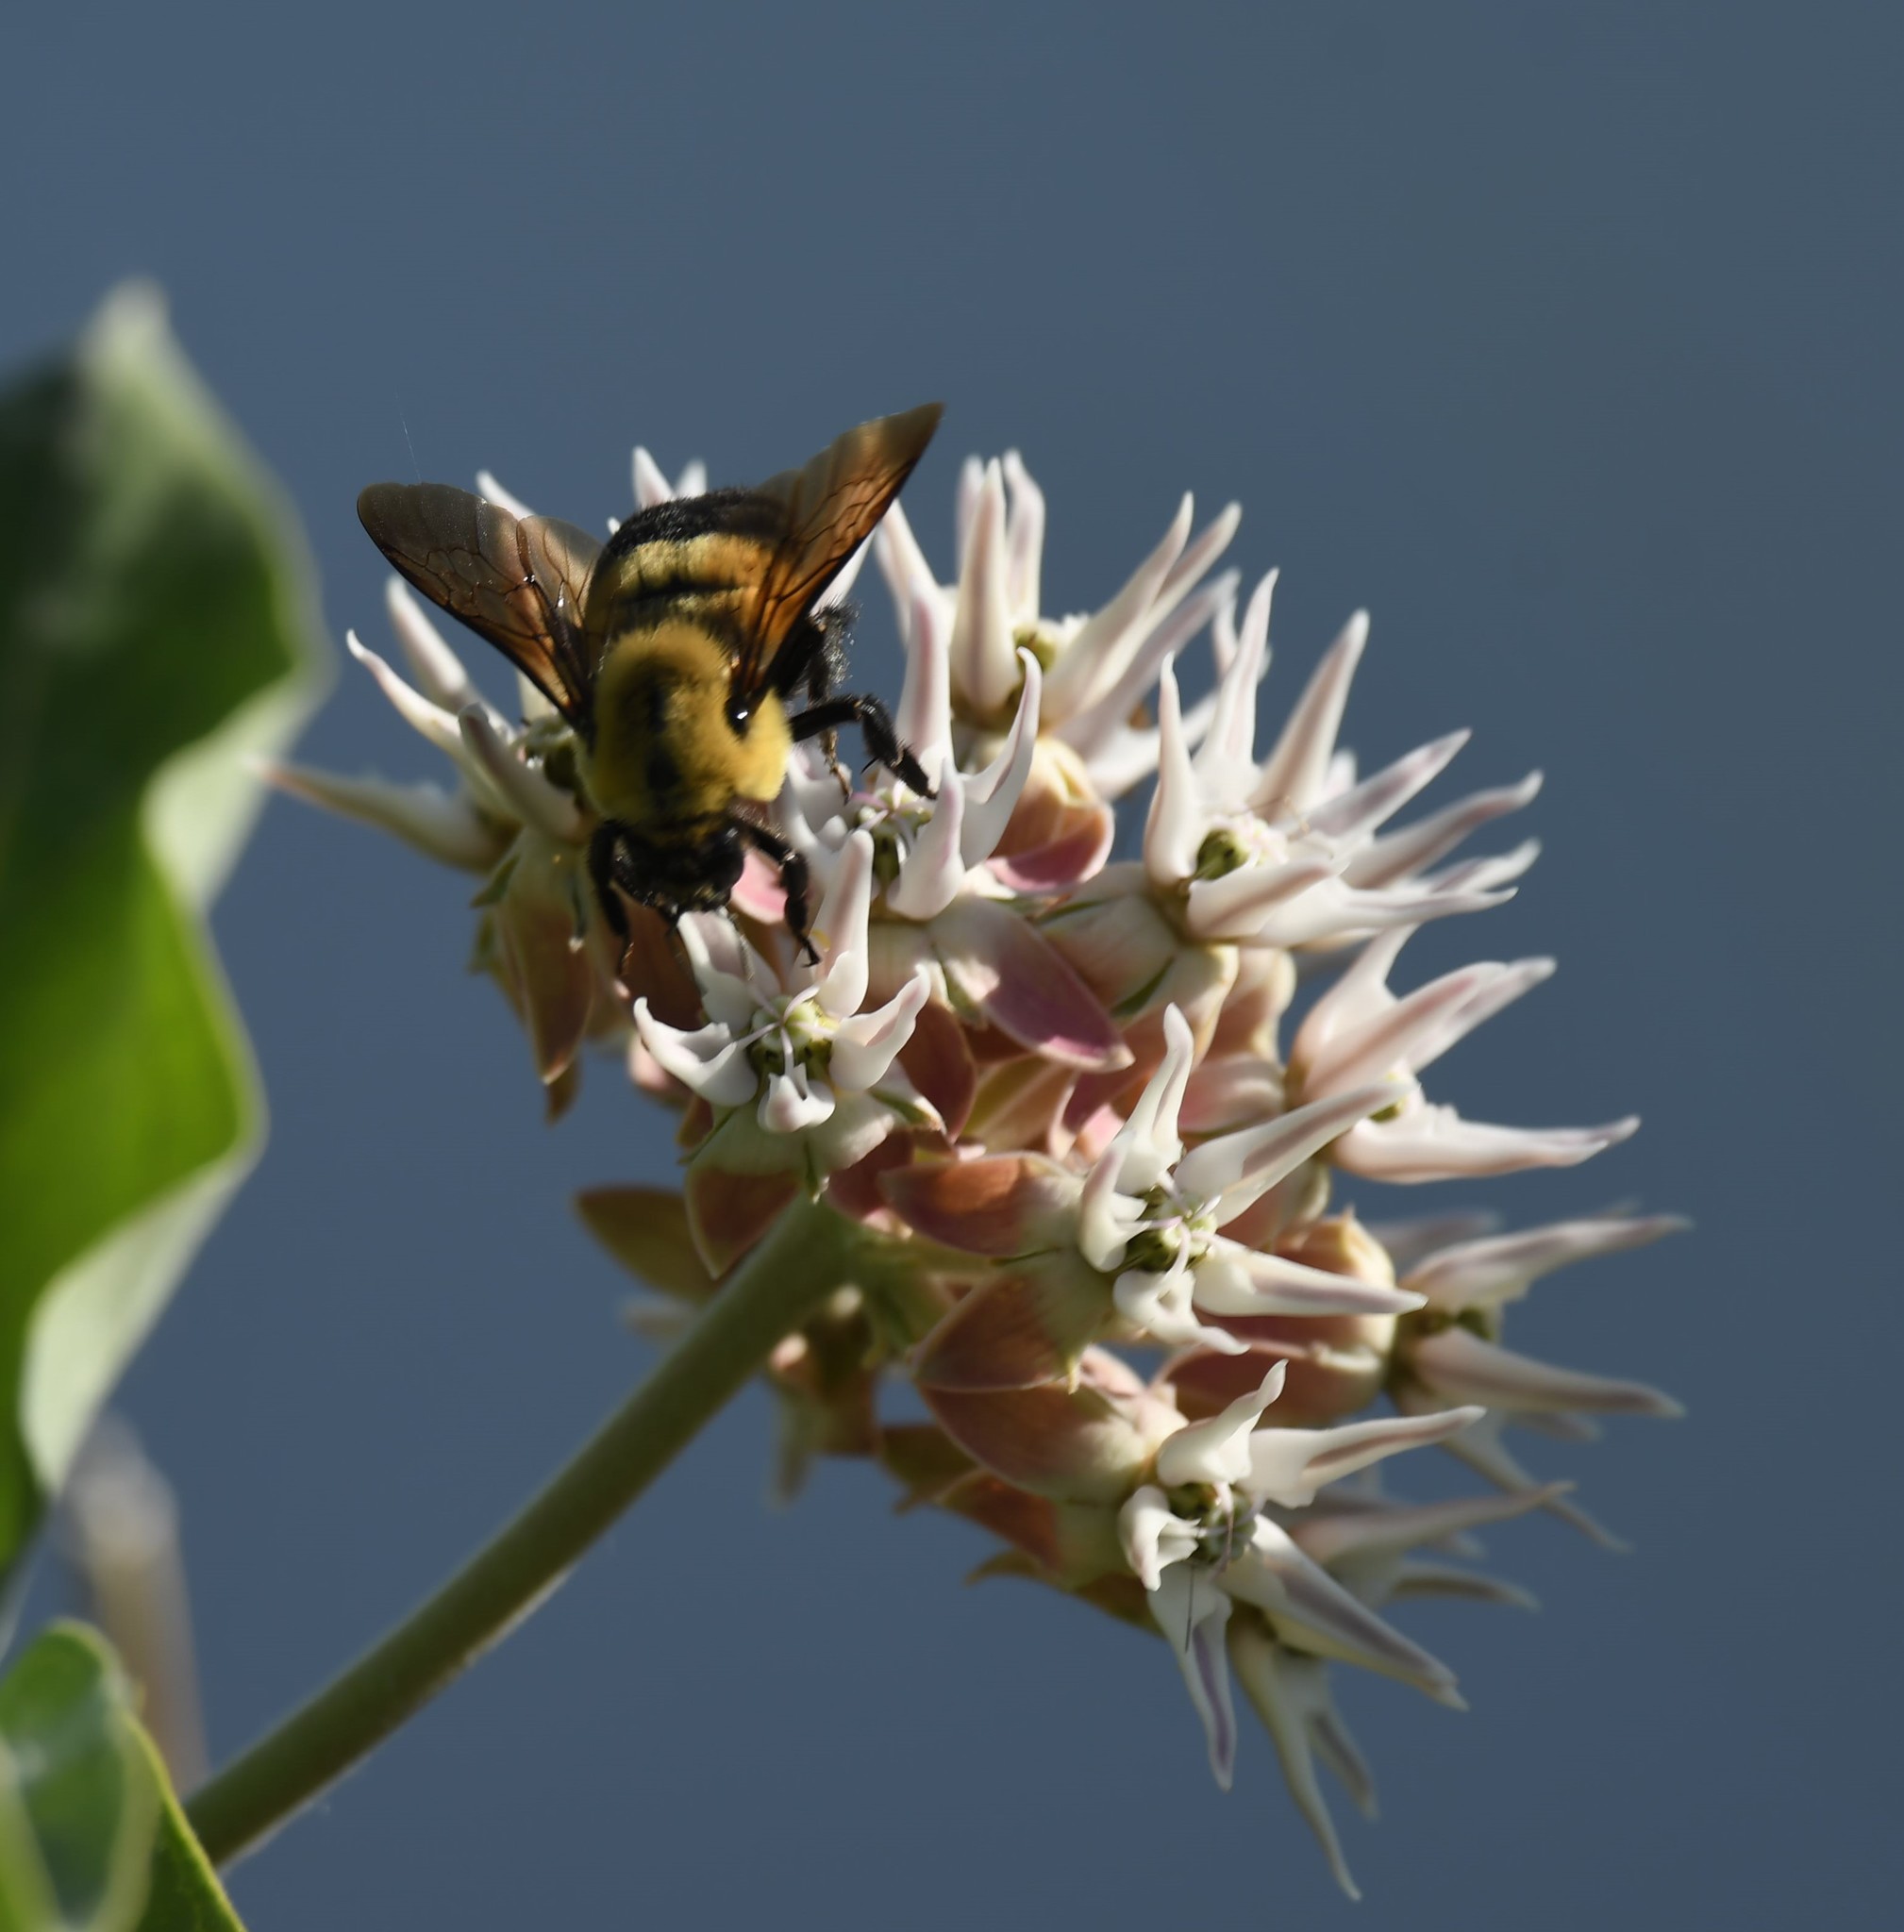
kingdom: Animalia
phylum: Arthropoda
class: Insecta
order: Hymenoptera
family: Apidae
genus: Bombus
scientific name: Bombus griseocollis
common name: Brown-belted bumble bee
